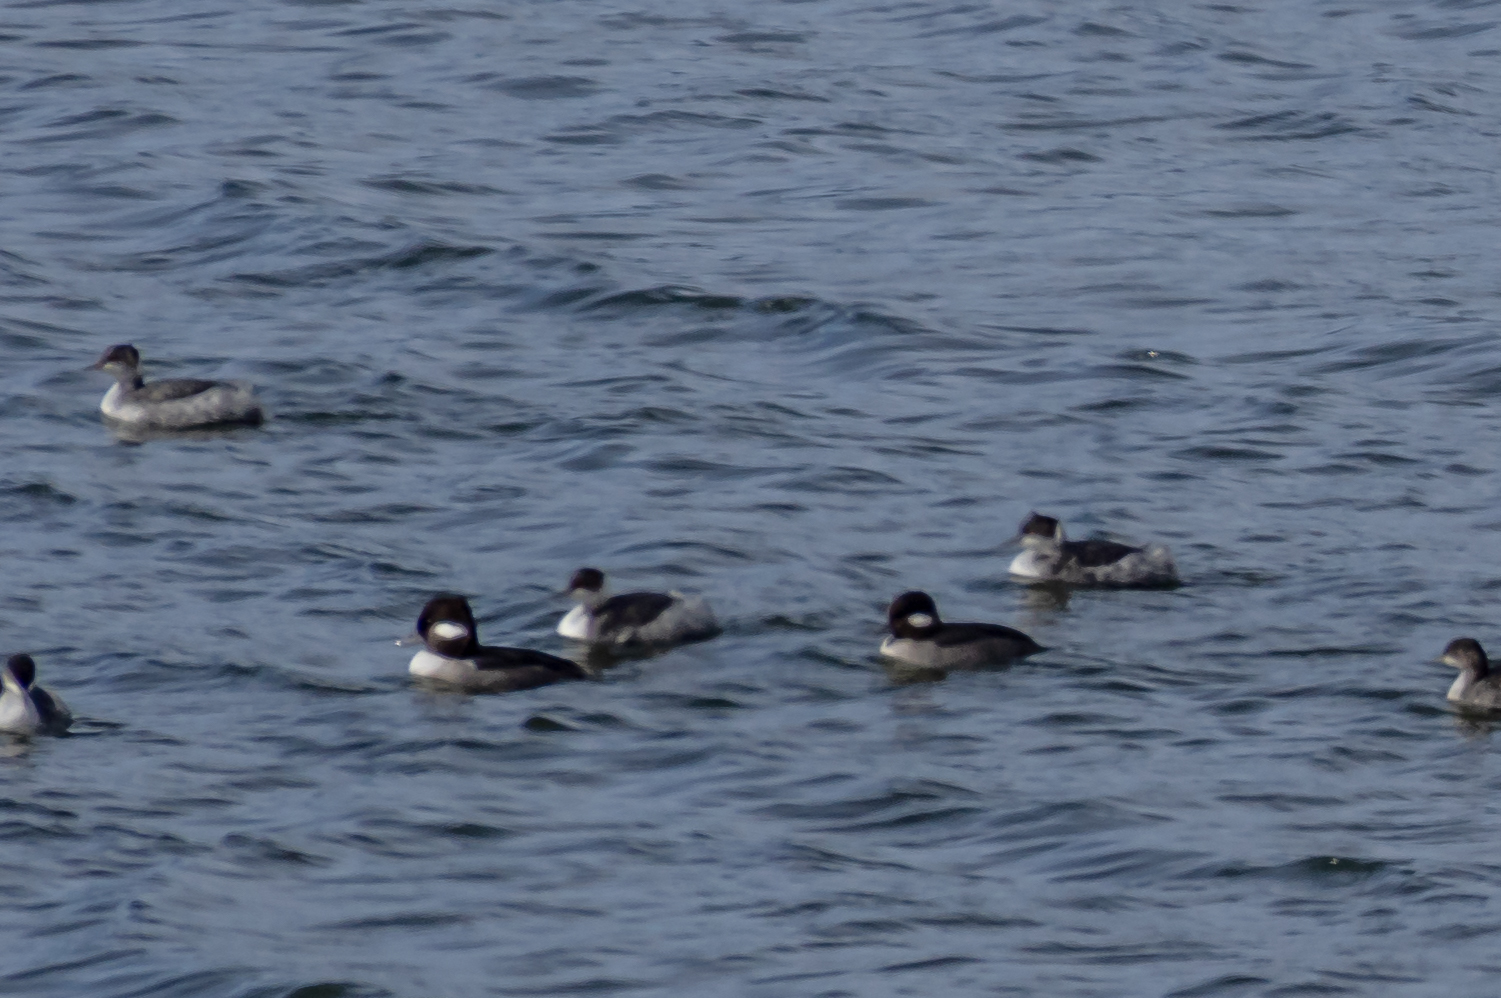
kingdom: Animalia
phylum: Chordata
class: Aves
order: Anseriformes
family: Anatidae
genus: Bucephala
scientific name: Bucephala albeola
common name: Bufflehead
